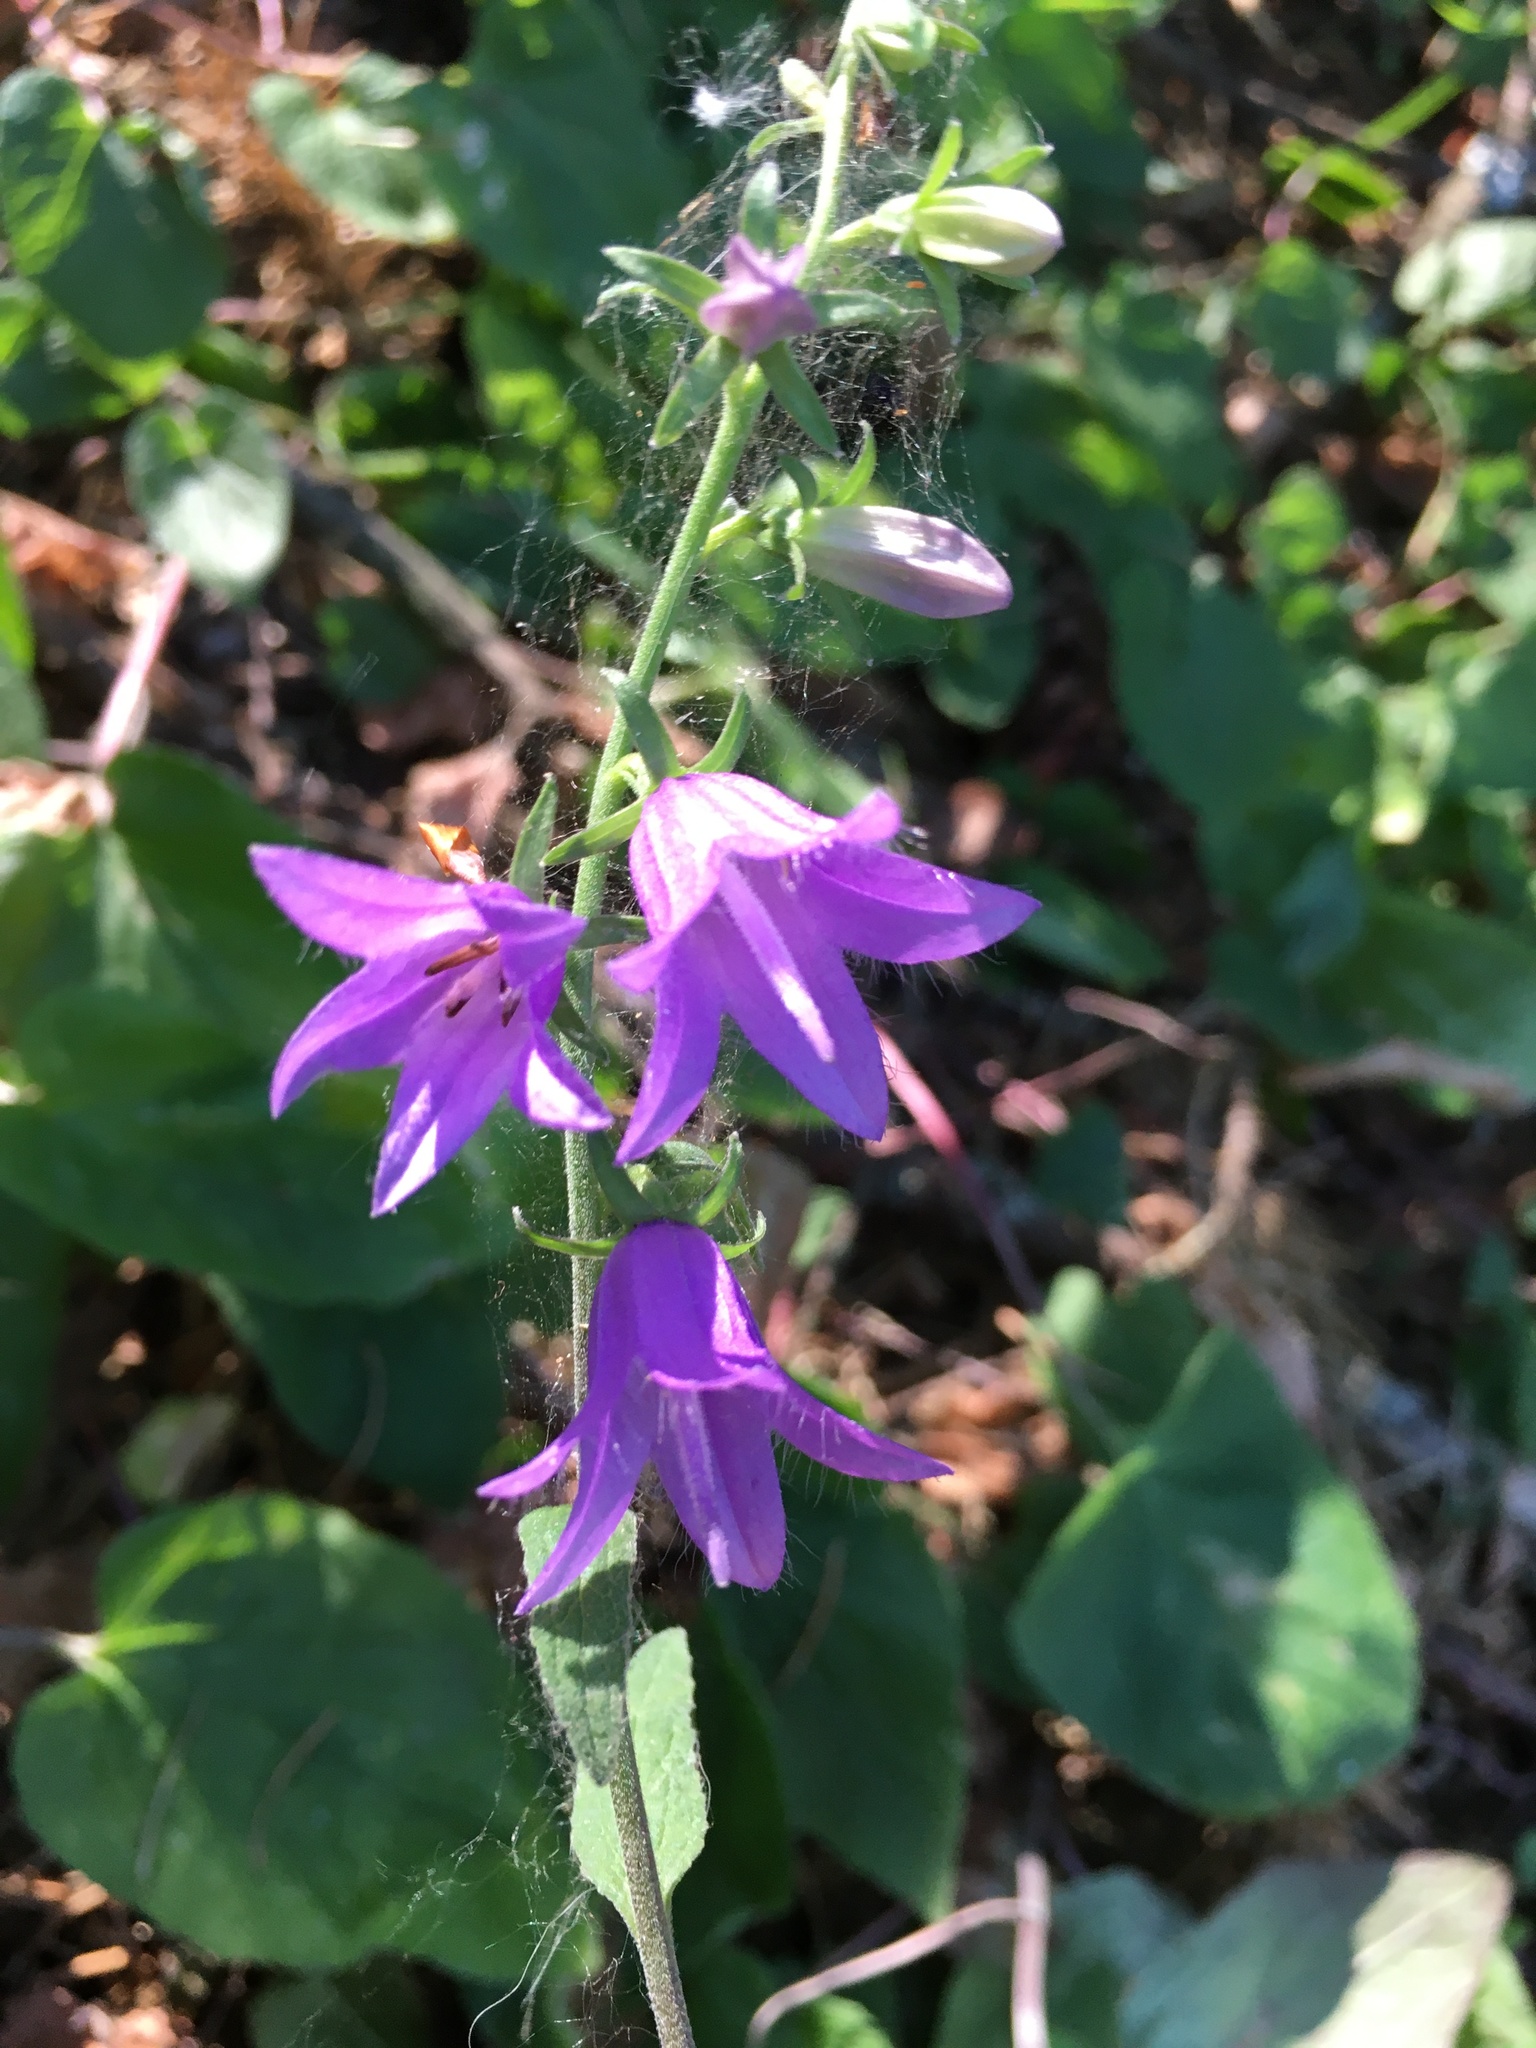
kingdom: Plantae
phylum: Tracheophyta
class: Magnoliopsida
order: Asterales
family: Campanulaceae
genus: Campanula
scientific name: Campanula rapunculoides
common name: Creeping bellflower
